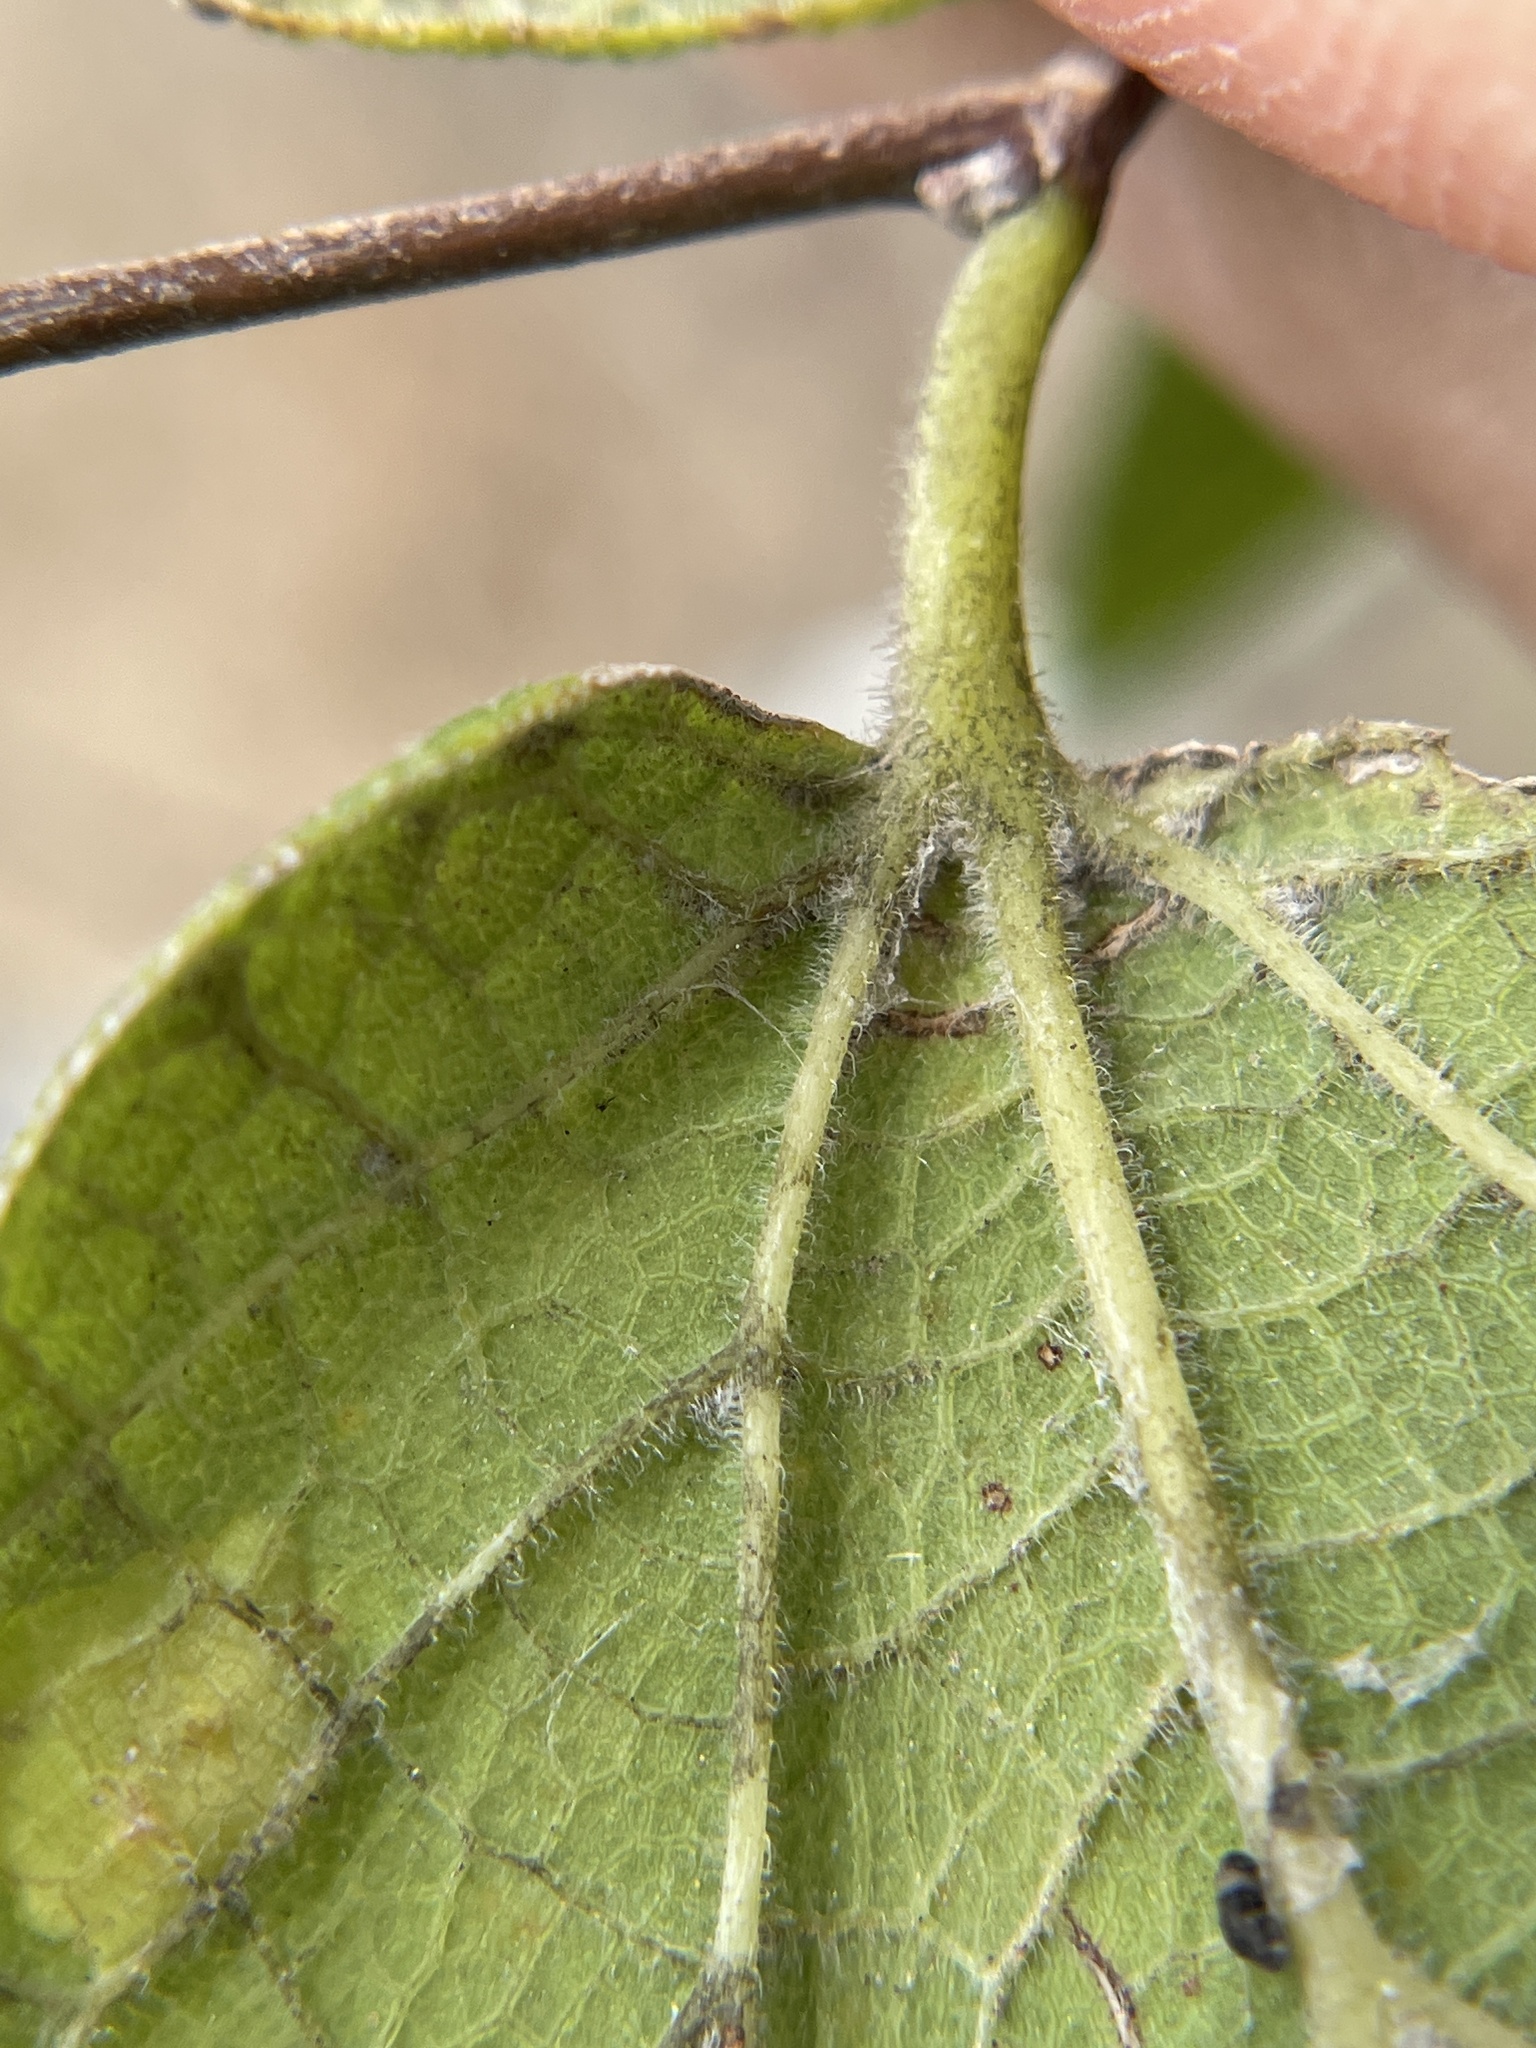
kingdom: Plantae
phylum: Tracheophyta
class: Magnoliopsida
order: Rosales
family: Cannabaceae
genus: Celtis
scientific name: Celtis reticulata
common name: Netleaf hackberry
